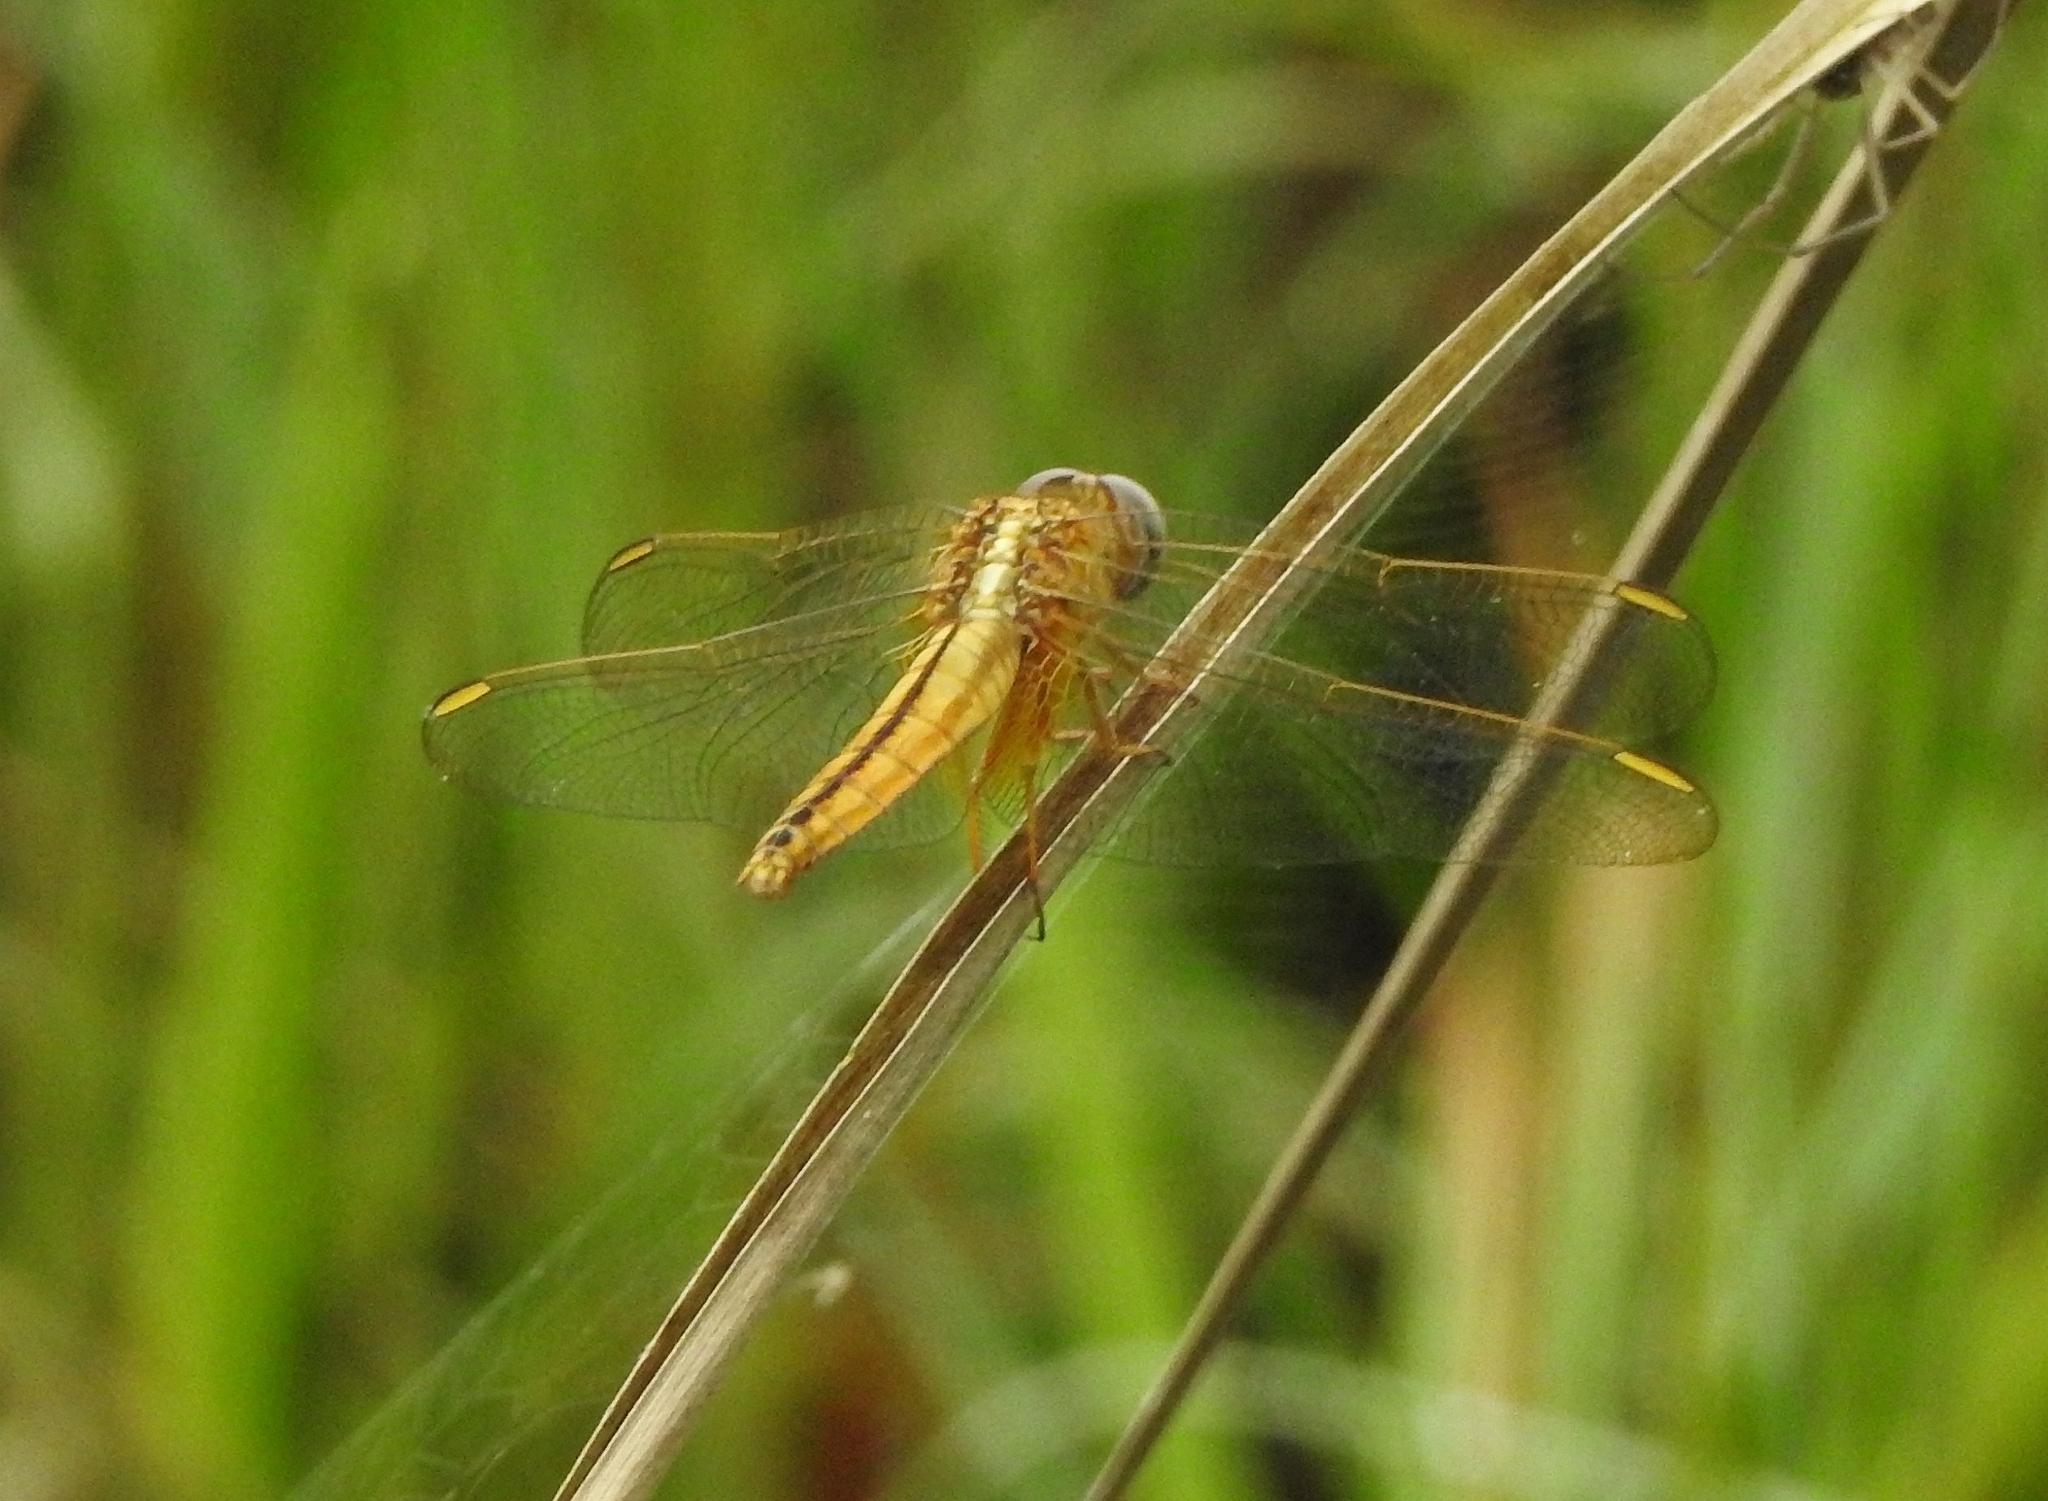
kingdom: Animalia
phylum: Arthropoda
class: Insecta
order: Odonata
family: Libellulidae
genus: Crocothemis
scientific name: Crocothemis servilia
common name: Scarlet skimmer
